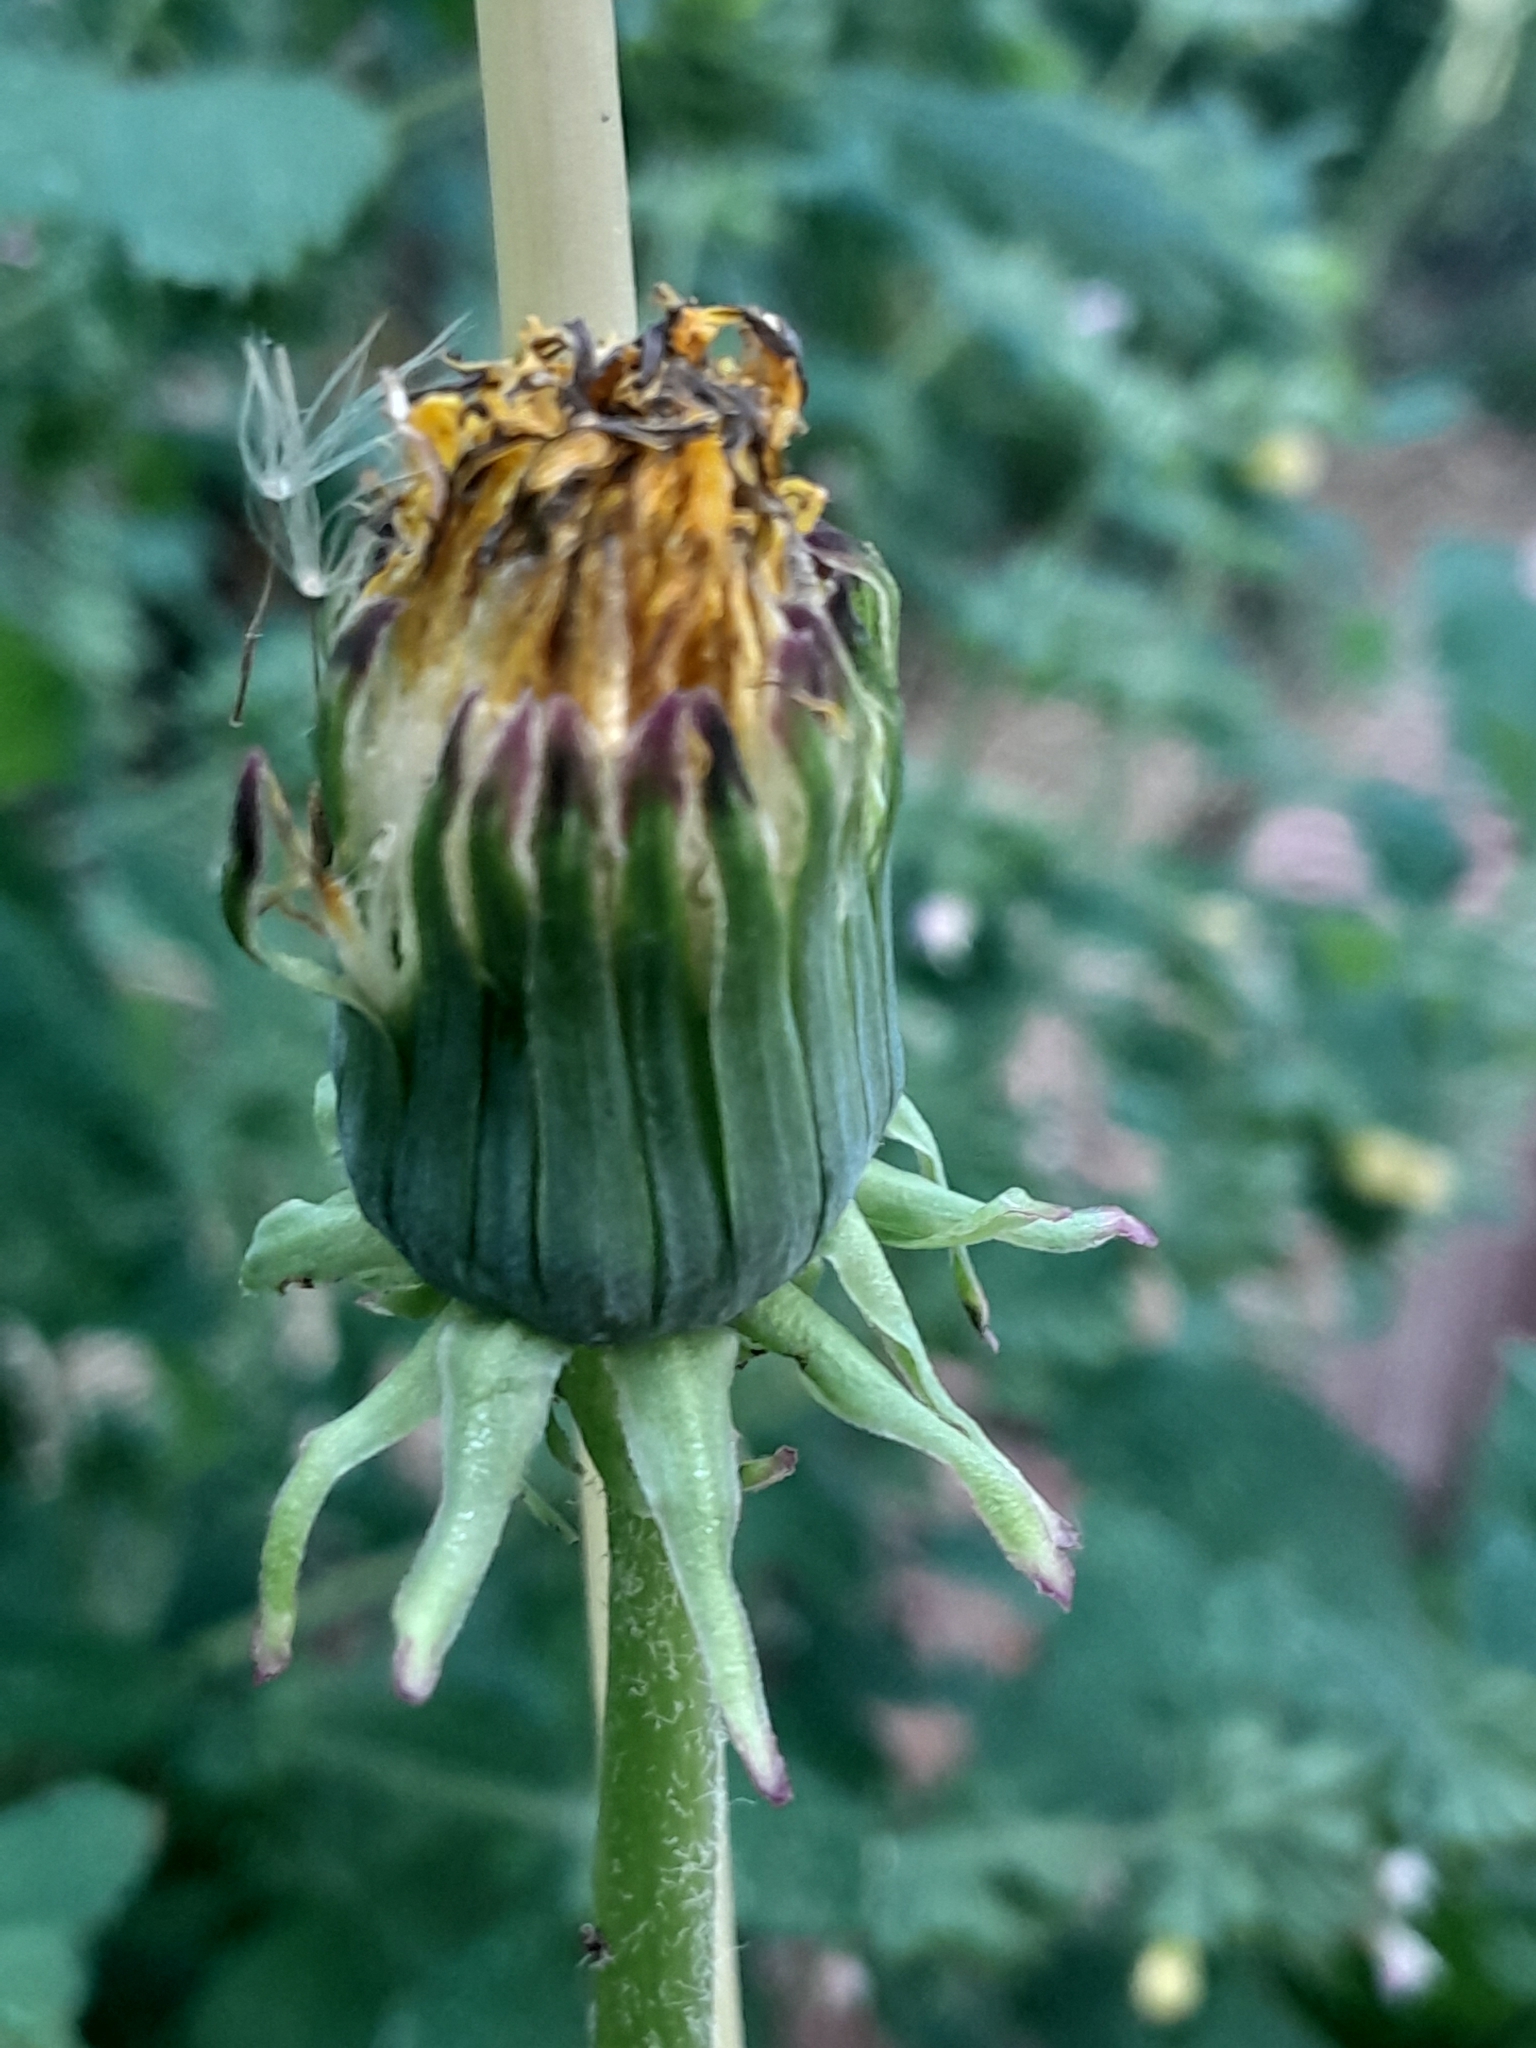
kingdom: Plantae
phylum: Tracheophyta
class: Magnoliopsida
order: Asterales
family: Asteraceae
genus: Taraxacum
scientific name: Taraxacum officinale
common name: Common dandelion
